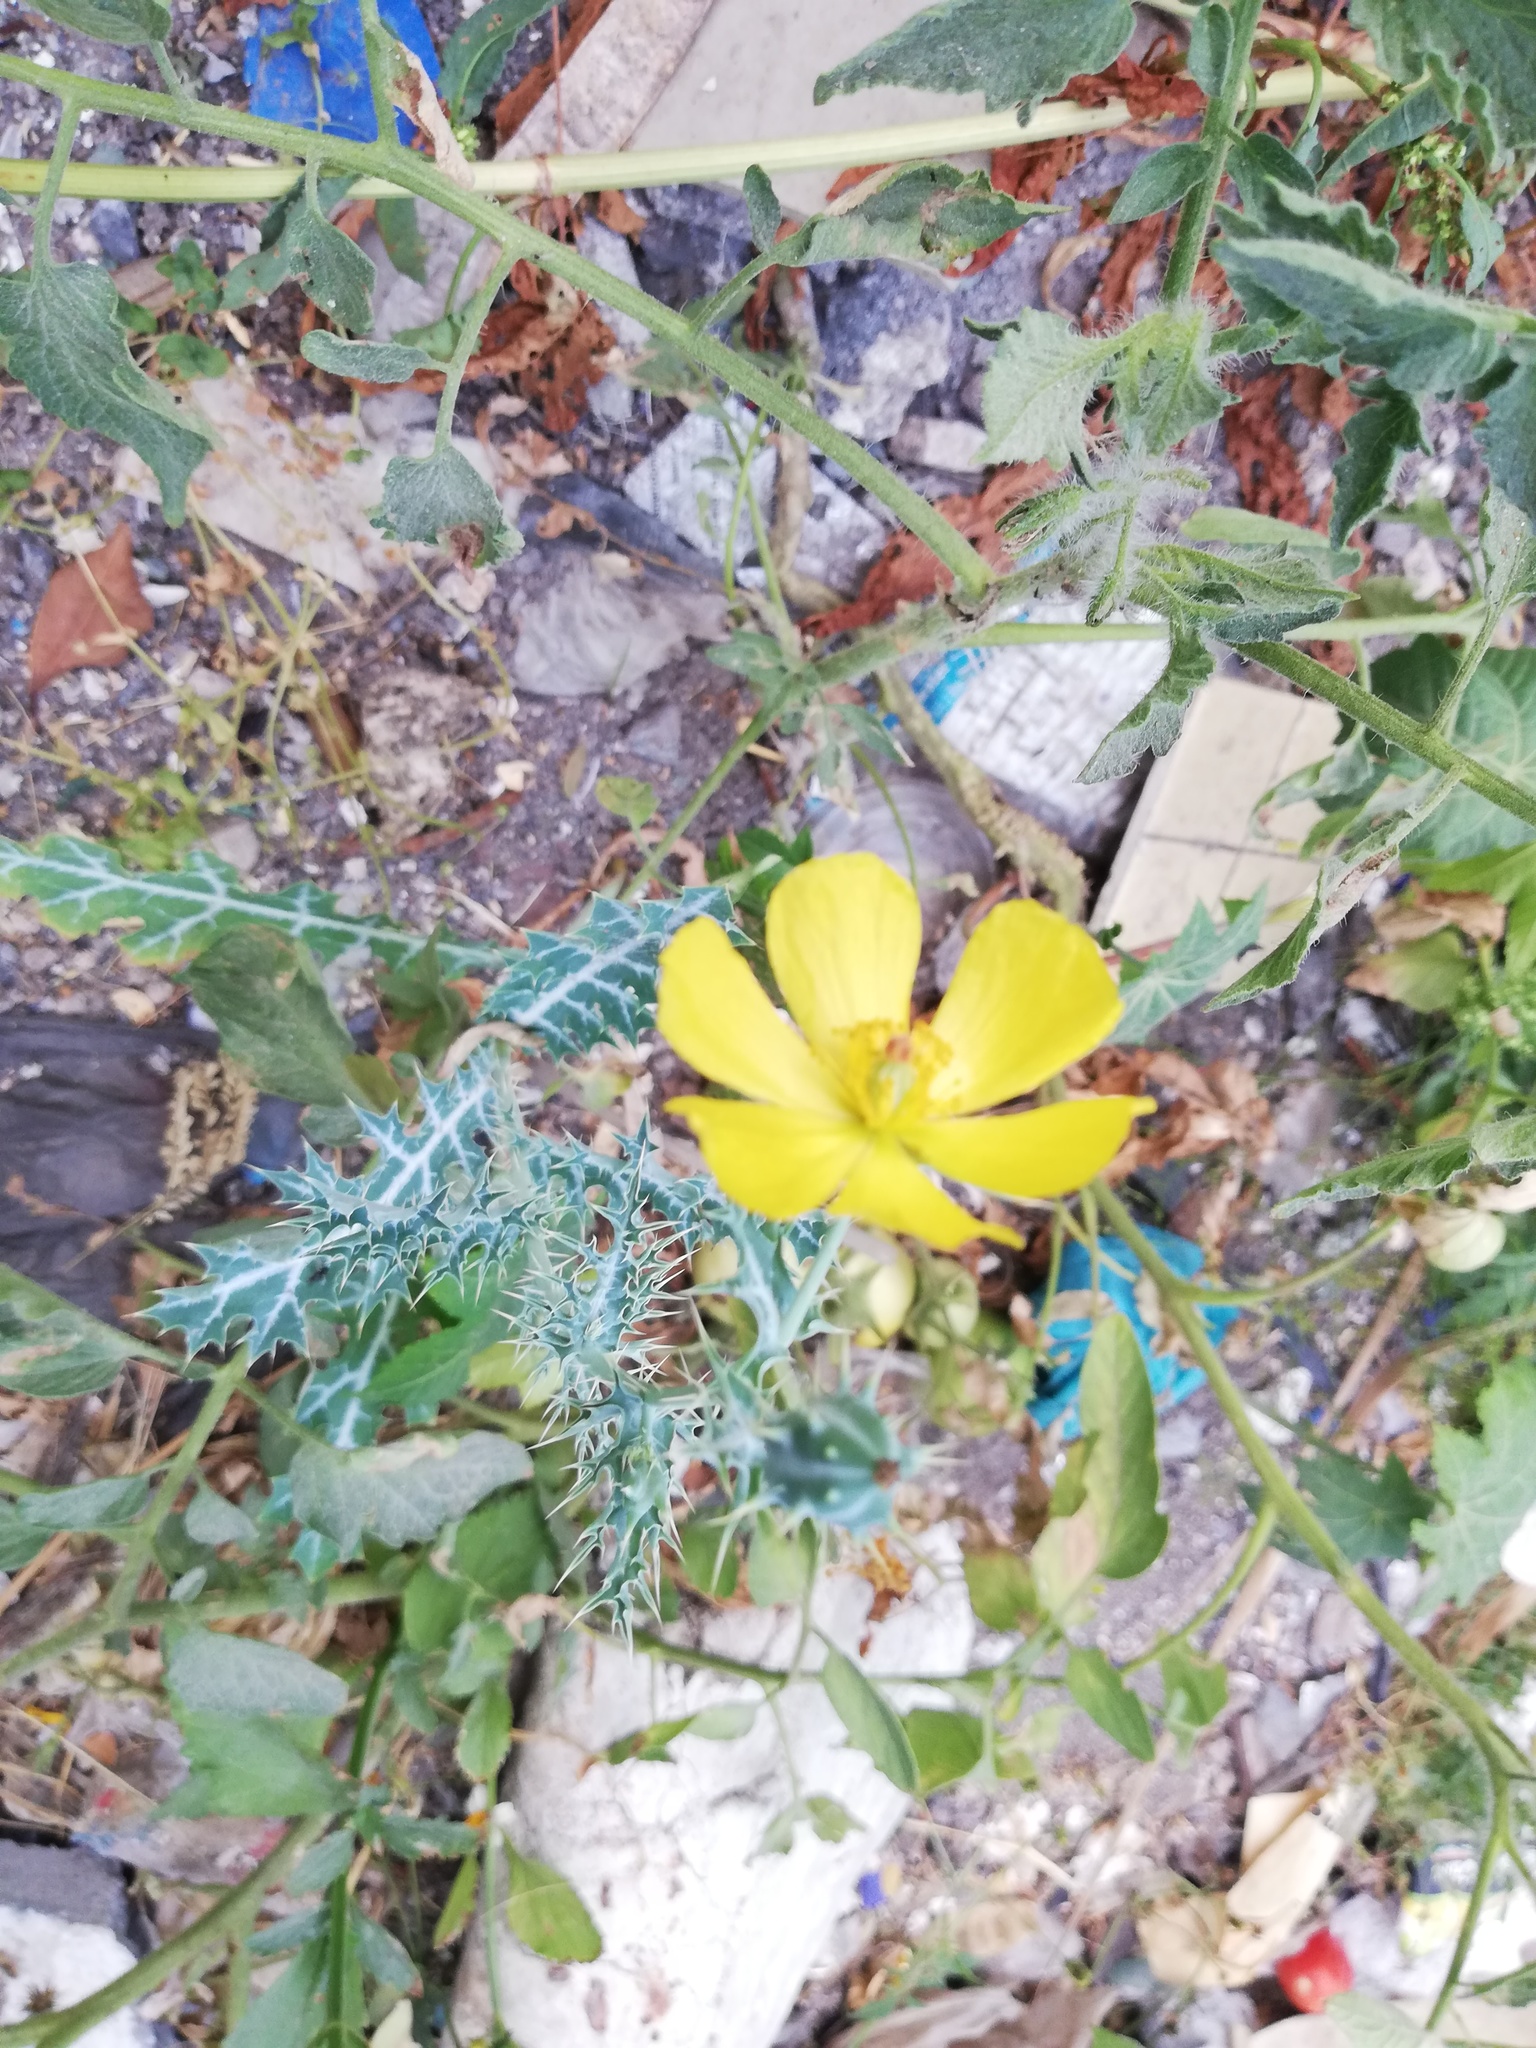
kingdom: Plantae
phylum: Tracheophyta
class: Magnoliopsida
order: Ranunculales
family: Papaveraceae
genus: Argemone
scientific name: Argemone mexicana
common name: Mexican poppy
